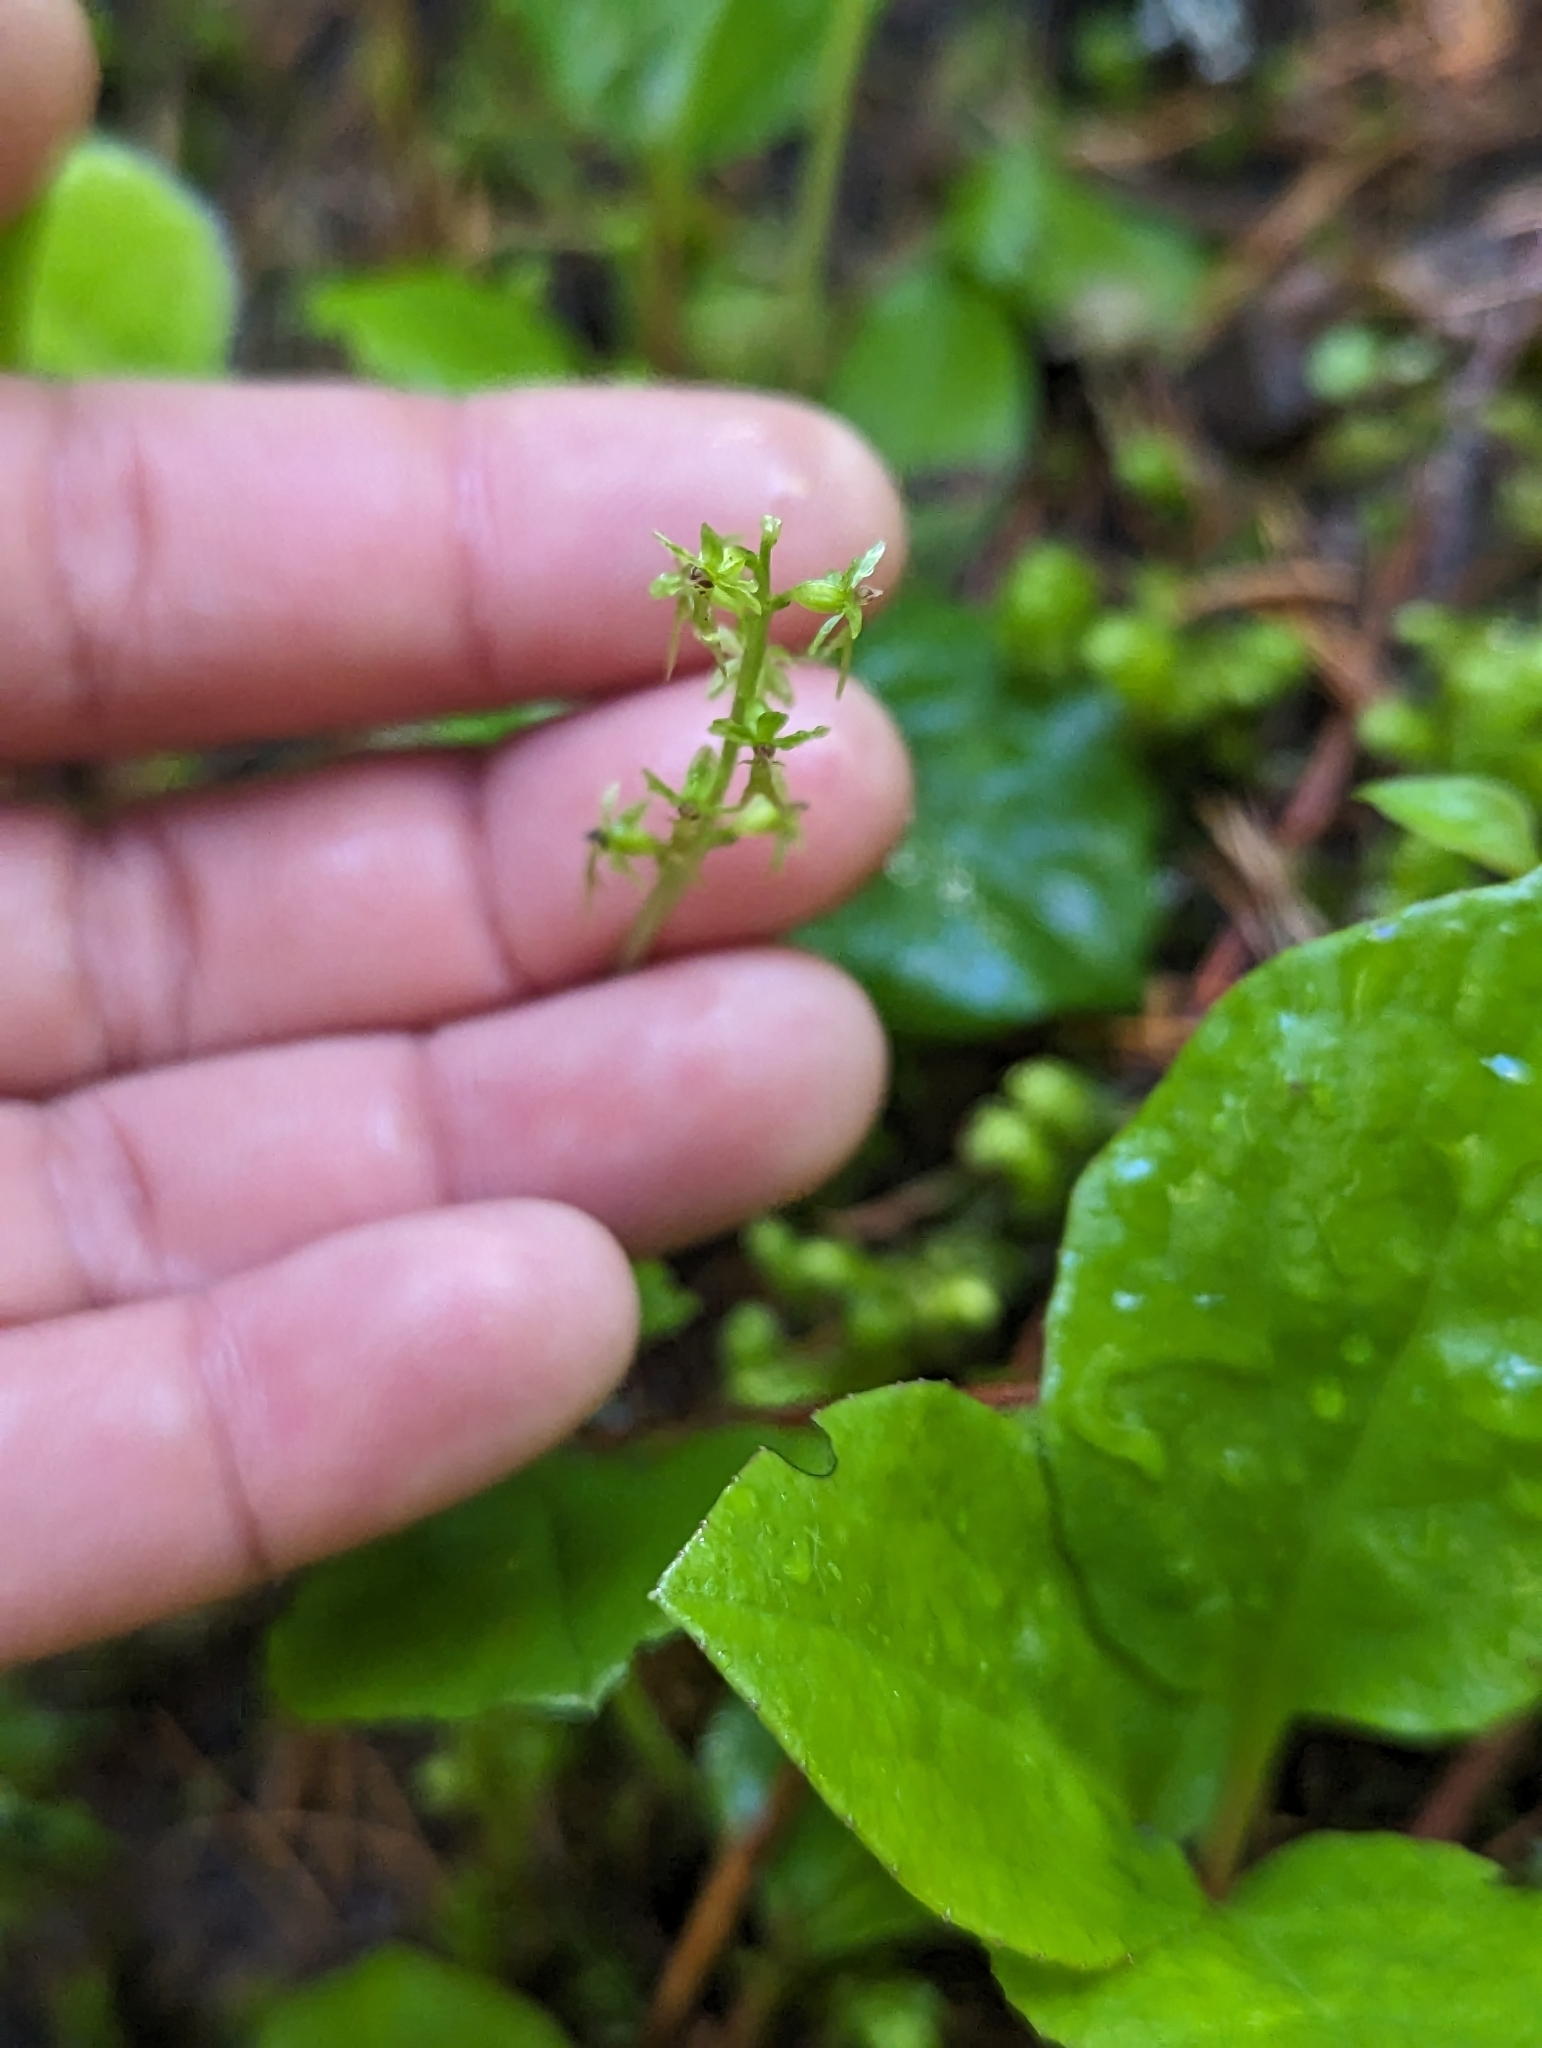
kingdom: Plantae
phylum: Tracheophyta
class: Liliopsida
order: Asparagales
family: Orchidaceae
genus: Neottia
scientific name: Neottia cordata
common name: Lesser twayblade
